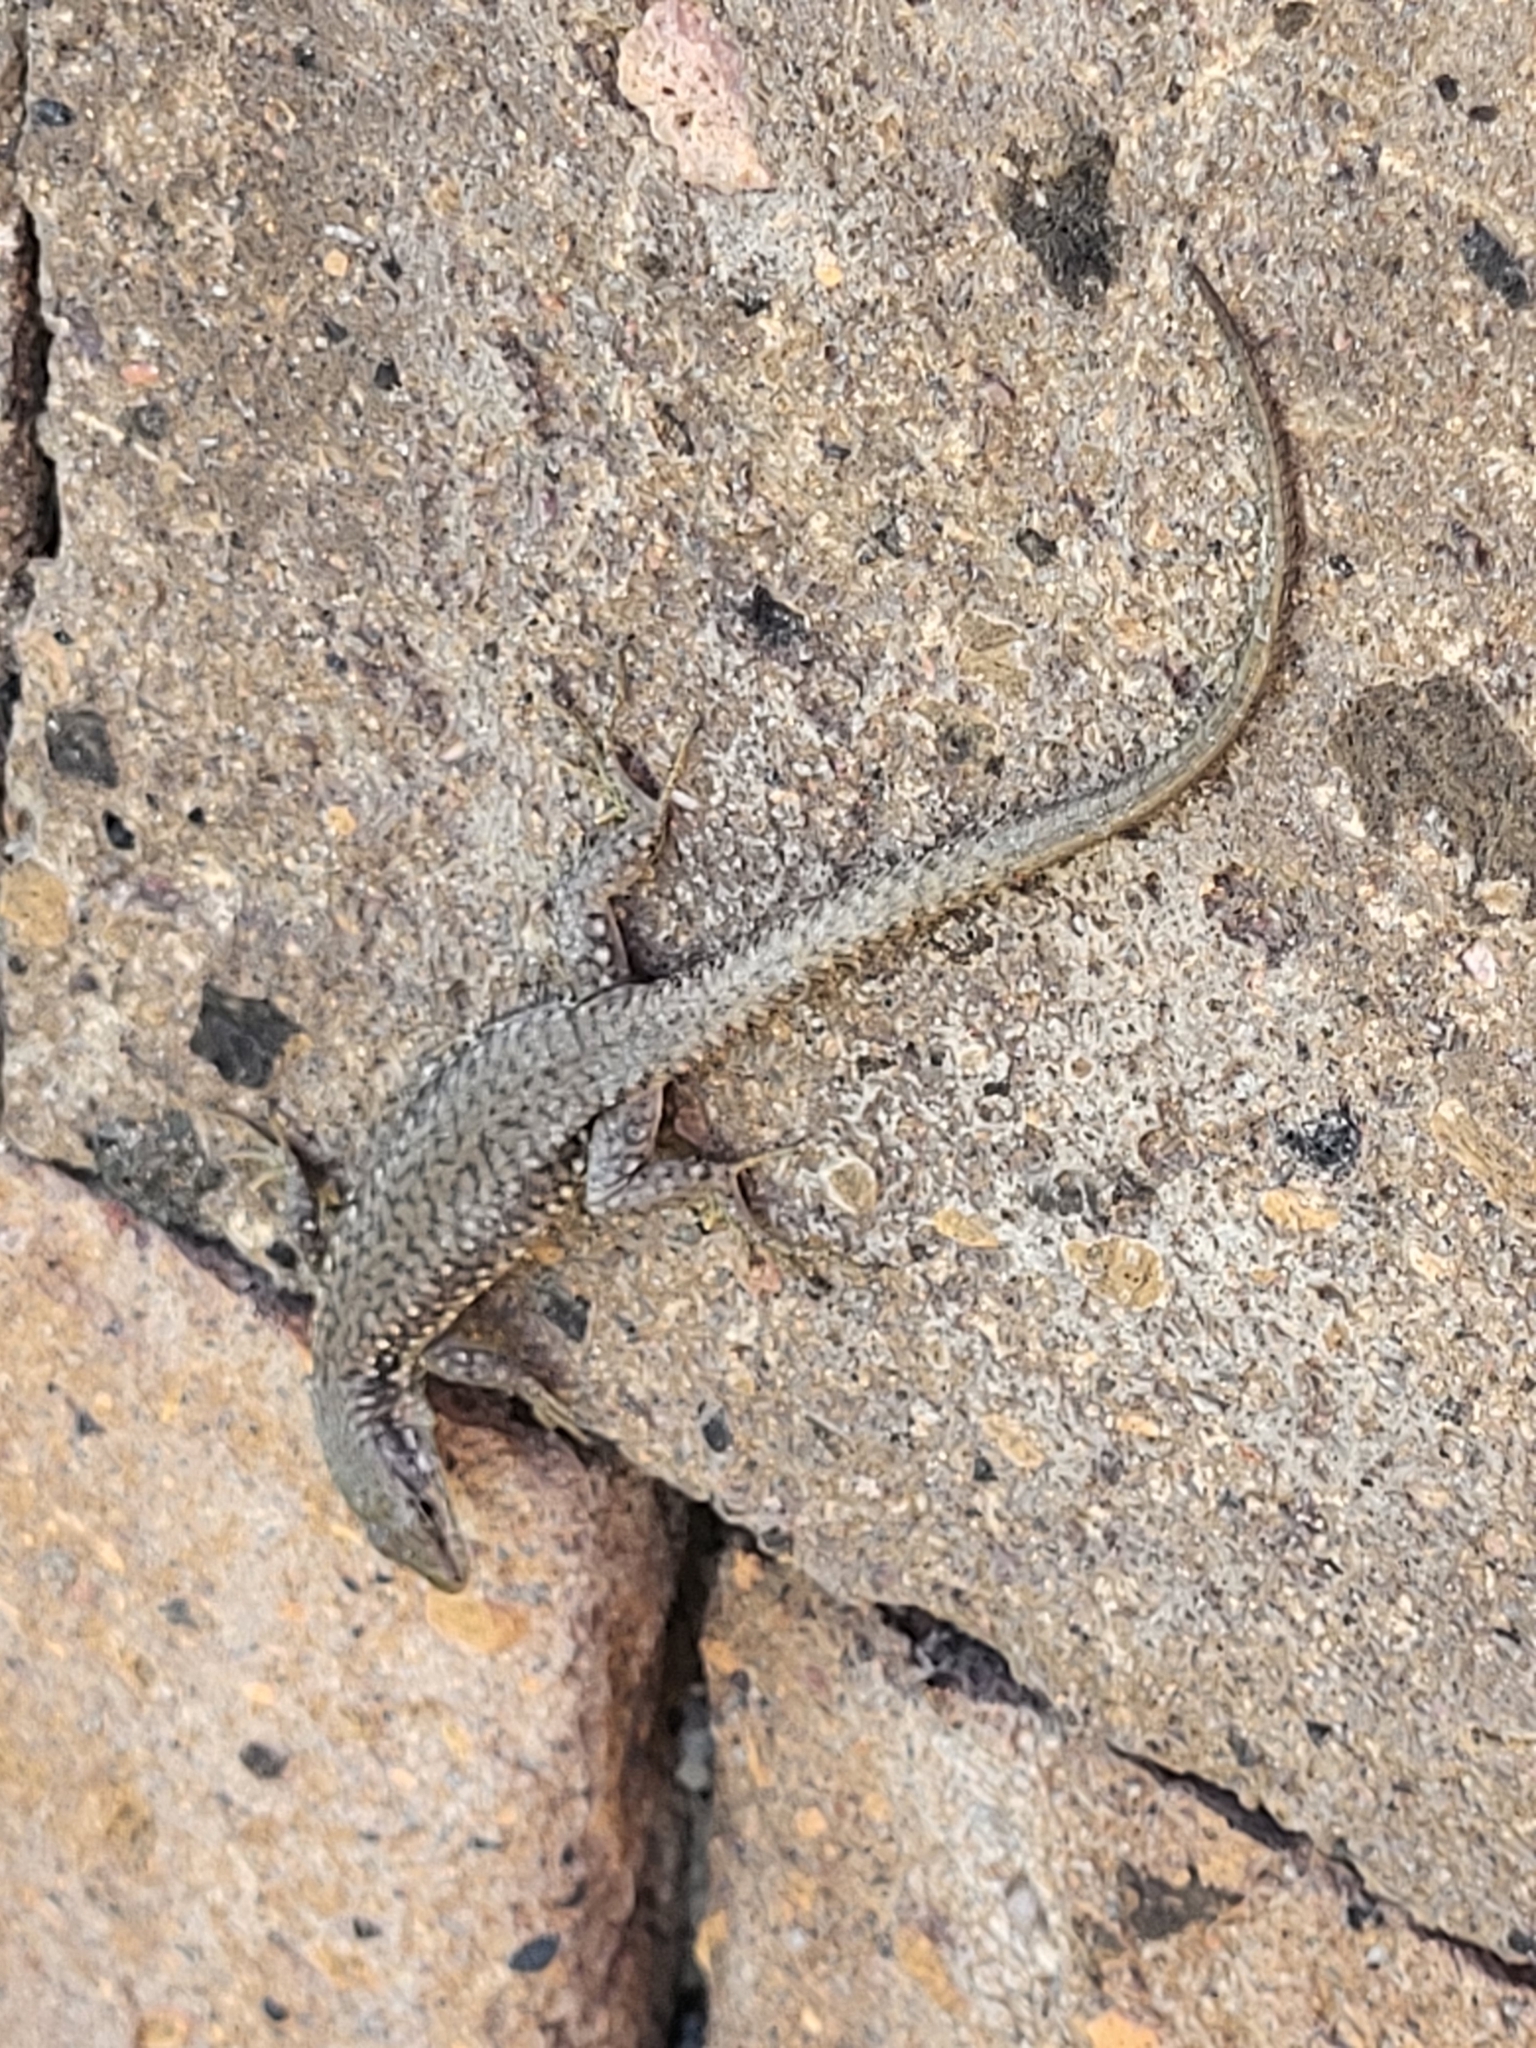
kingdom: Animalia
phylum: Chordata
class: Squamata
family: Lacertidae
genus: Darevskia
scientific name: Darevskia
